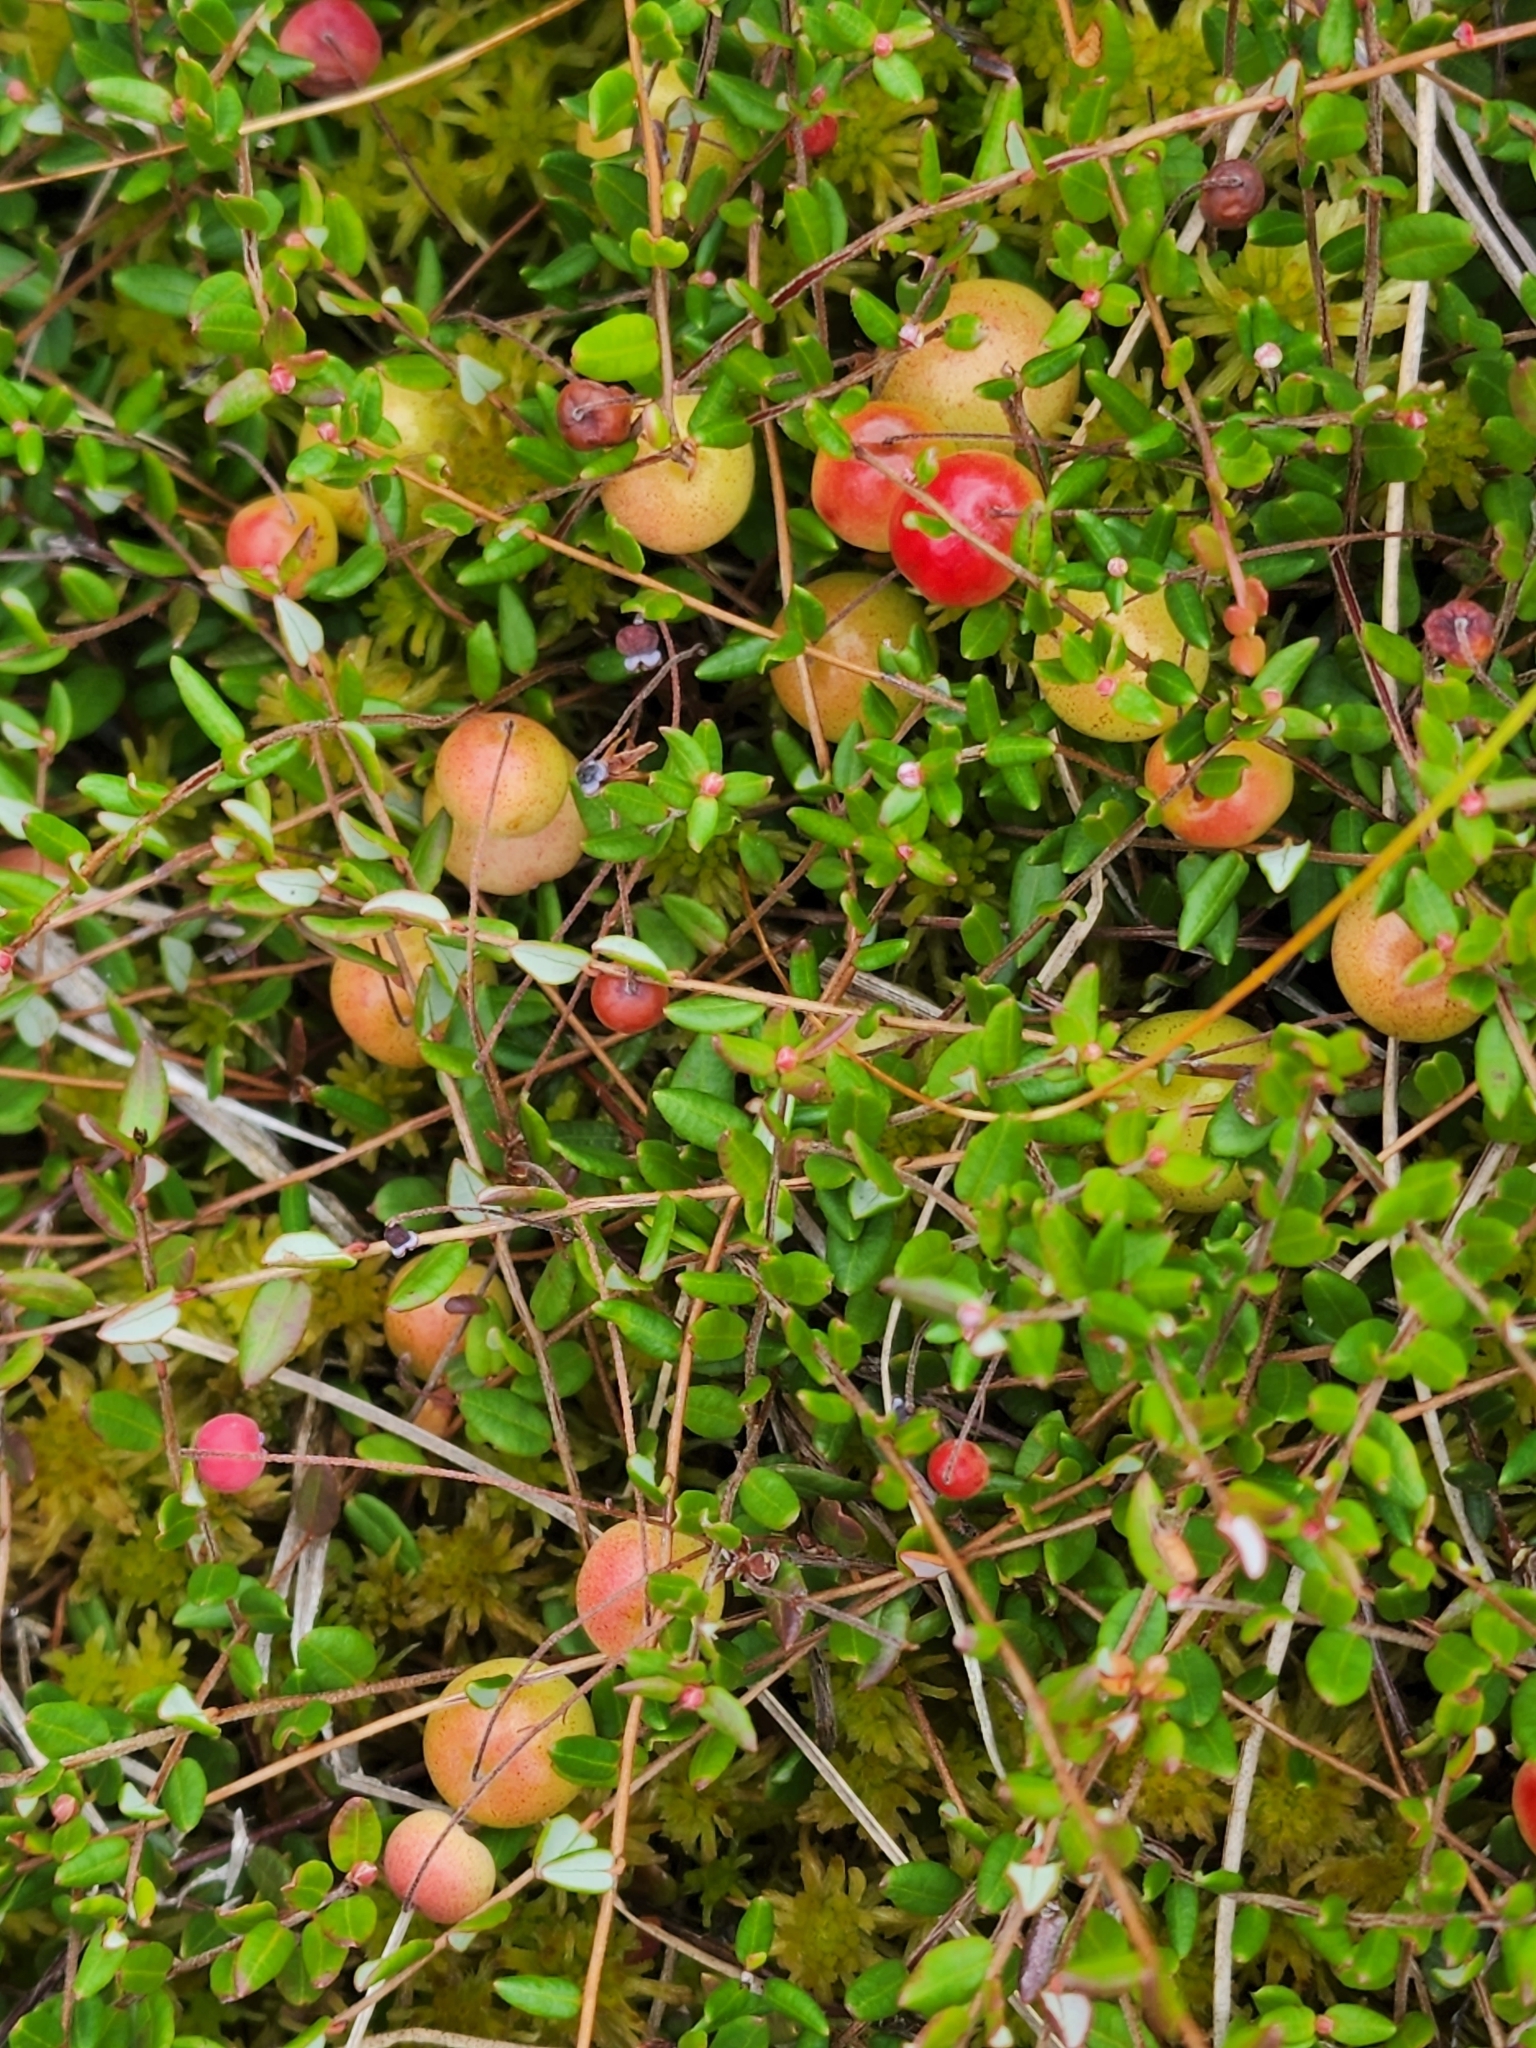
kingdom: Plantae
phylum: Tracheophyta
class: Magnoliopsida
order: Ericales
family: Ericaceae
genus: Vaccinium
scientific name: Vaccinium oxycoccos
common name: Cranberry
